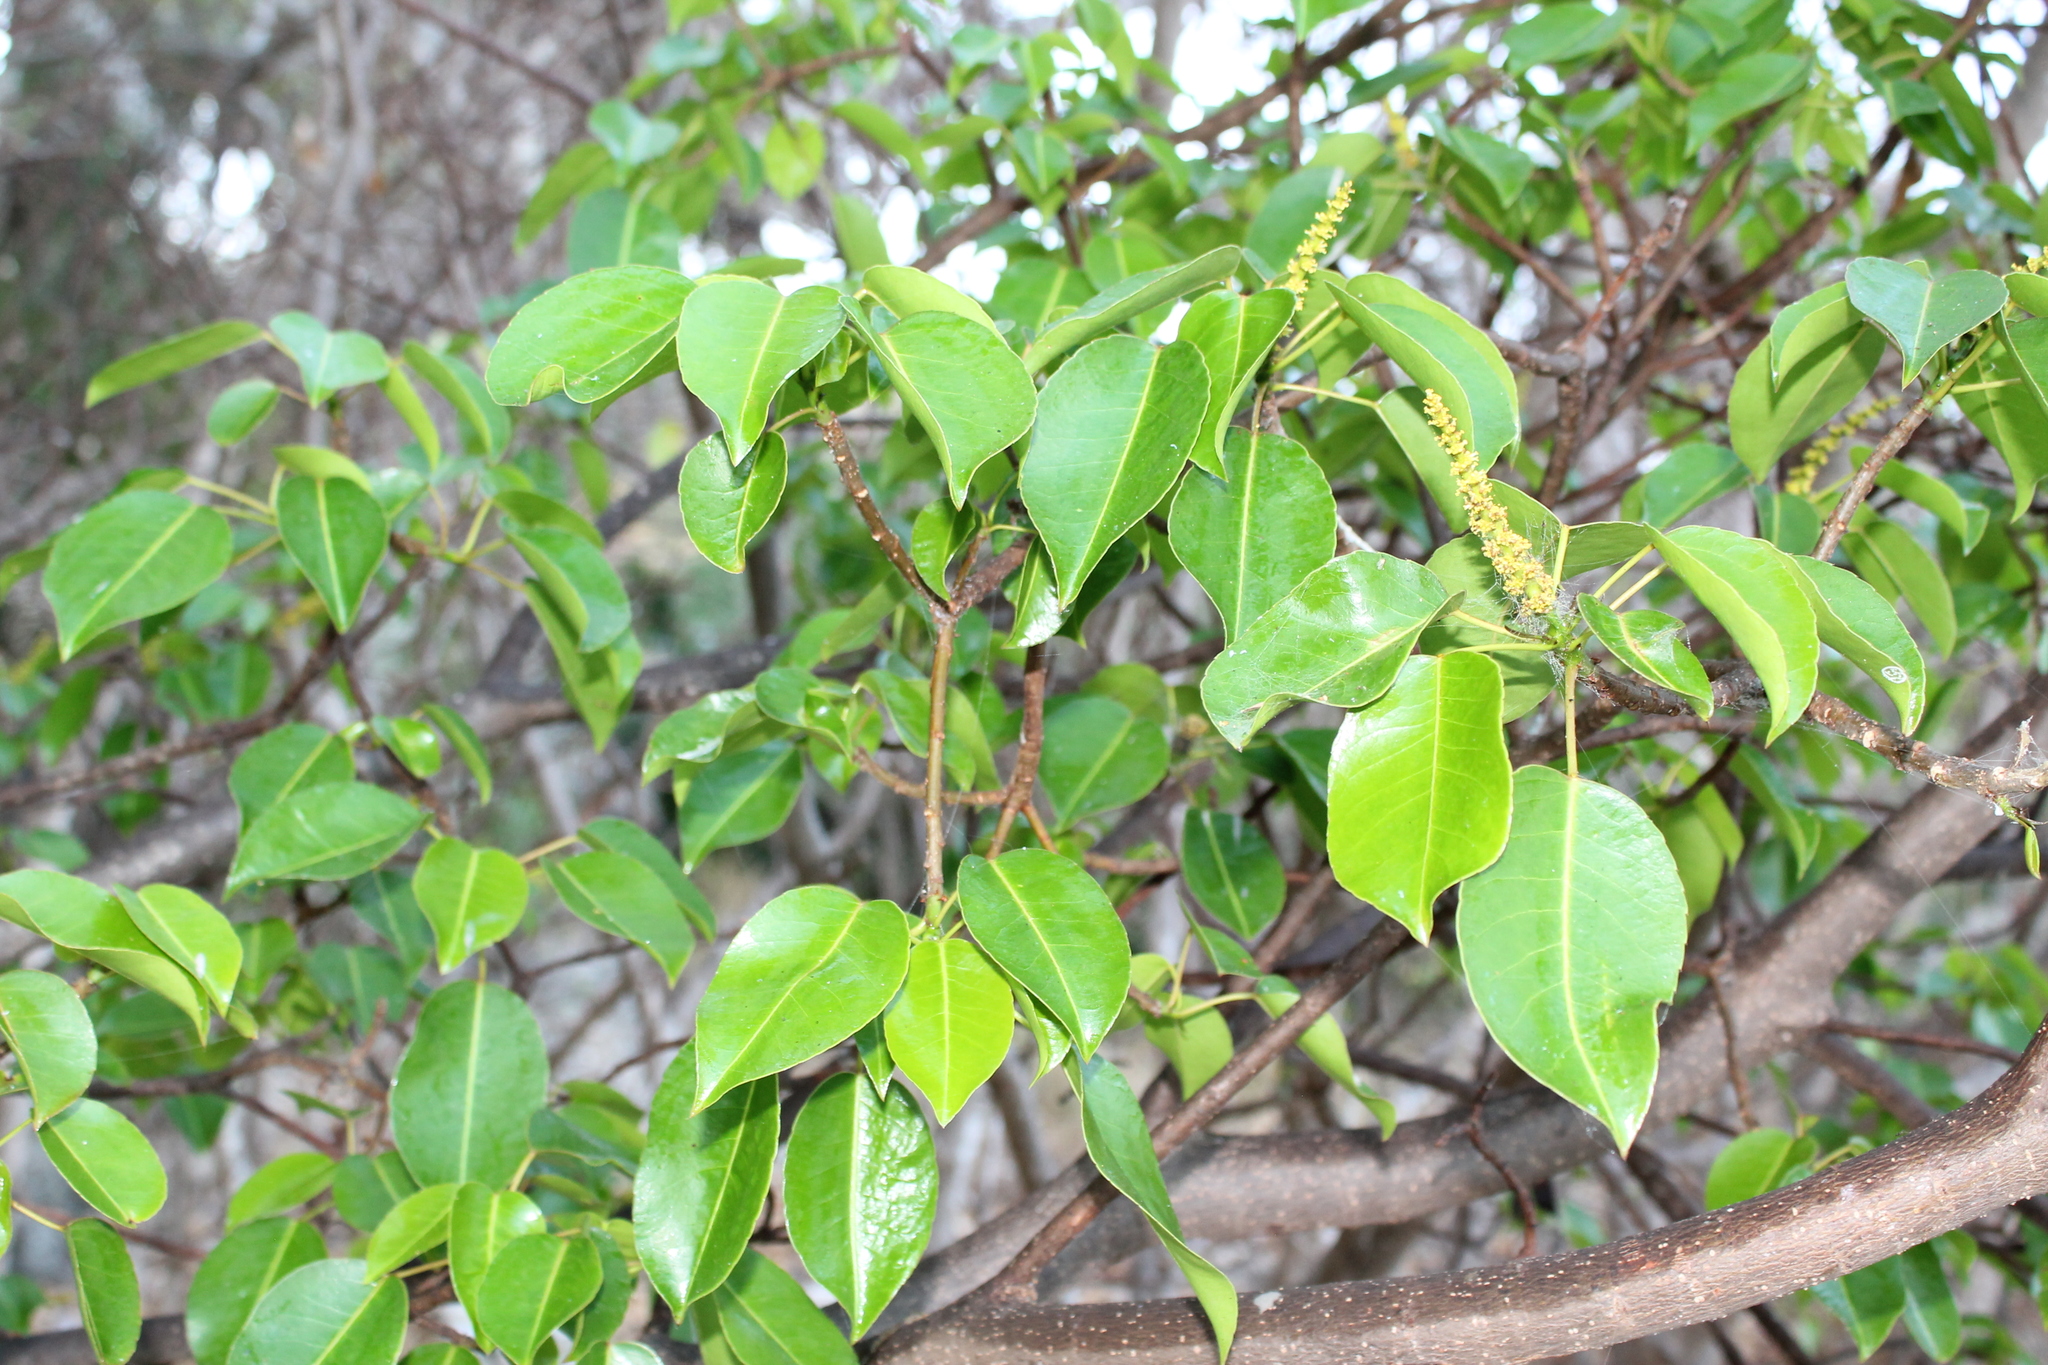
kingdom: Plantae
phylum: Tracheophyta
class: Magnoliopsida
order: Malpighiales
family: Euphorbiaceae
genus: Hippomane
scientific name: Hippomane mancinella
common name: Manchineel
